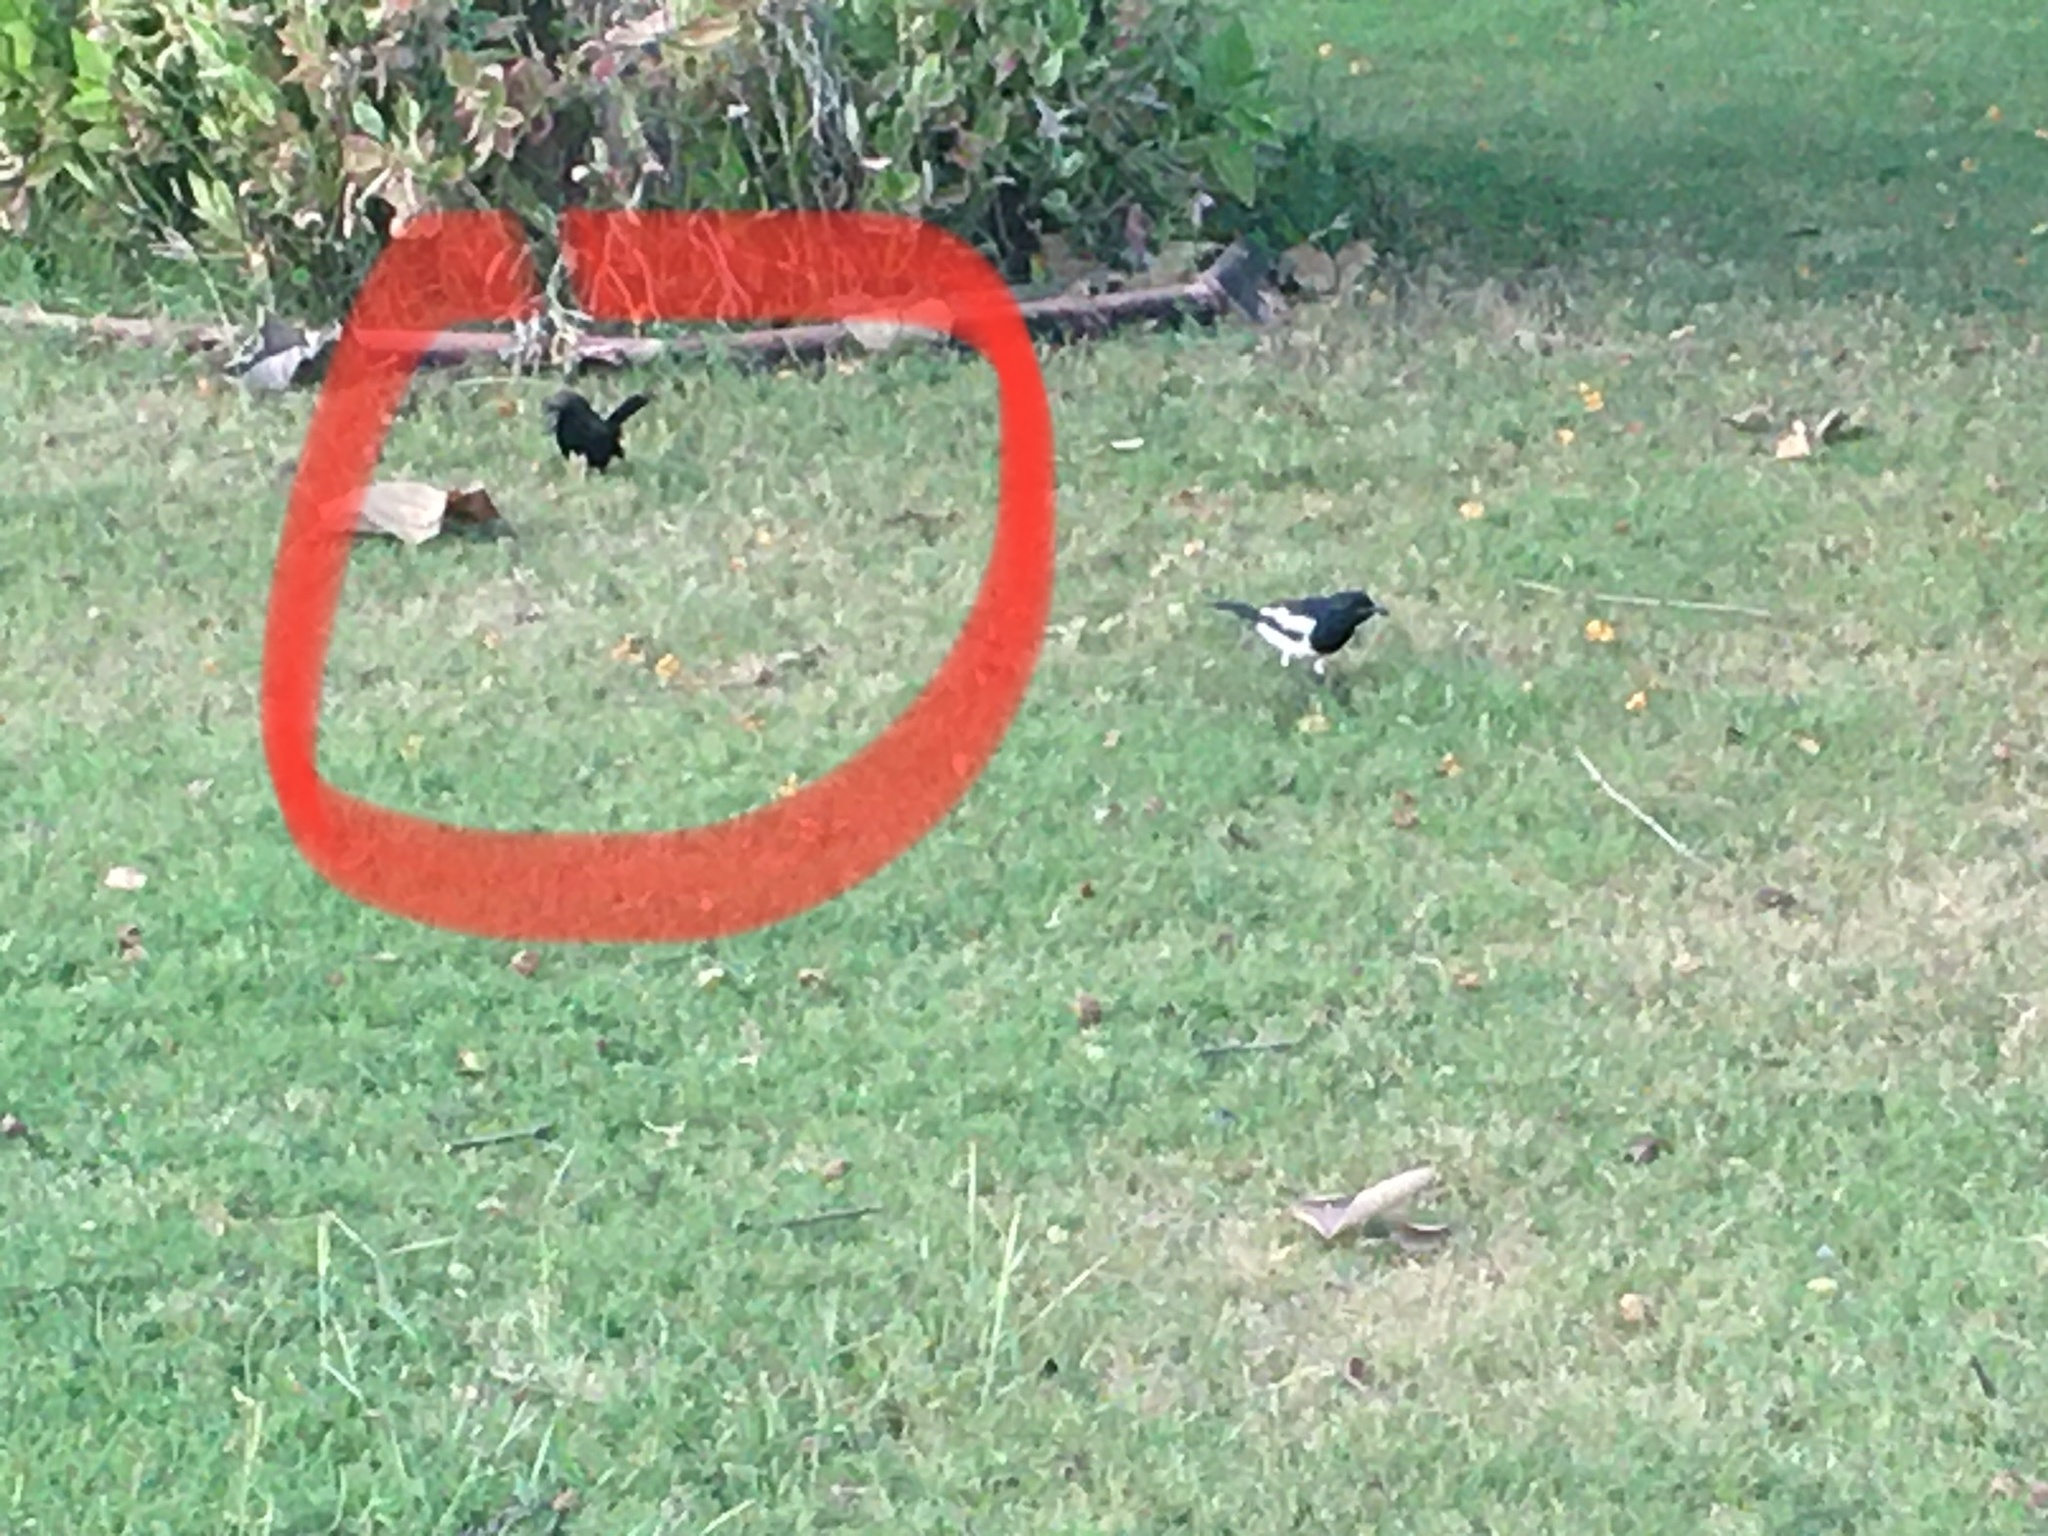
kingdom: Animalia
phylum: Chordata
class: Aves
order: Passeriformes
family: Muscicapidae
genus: Saxicoloides
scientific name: Saxicoloides fulicatus
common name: Indian robin
